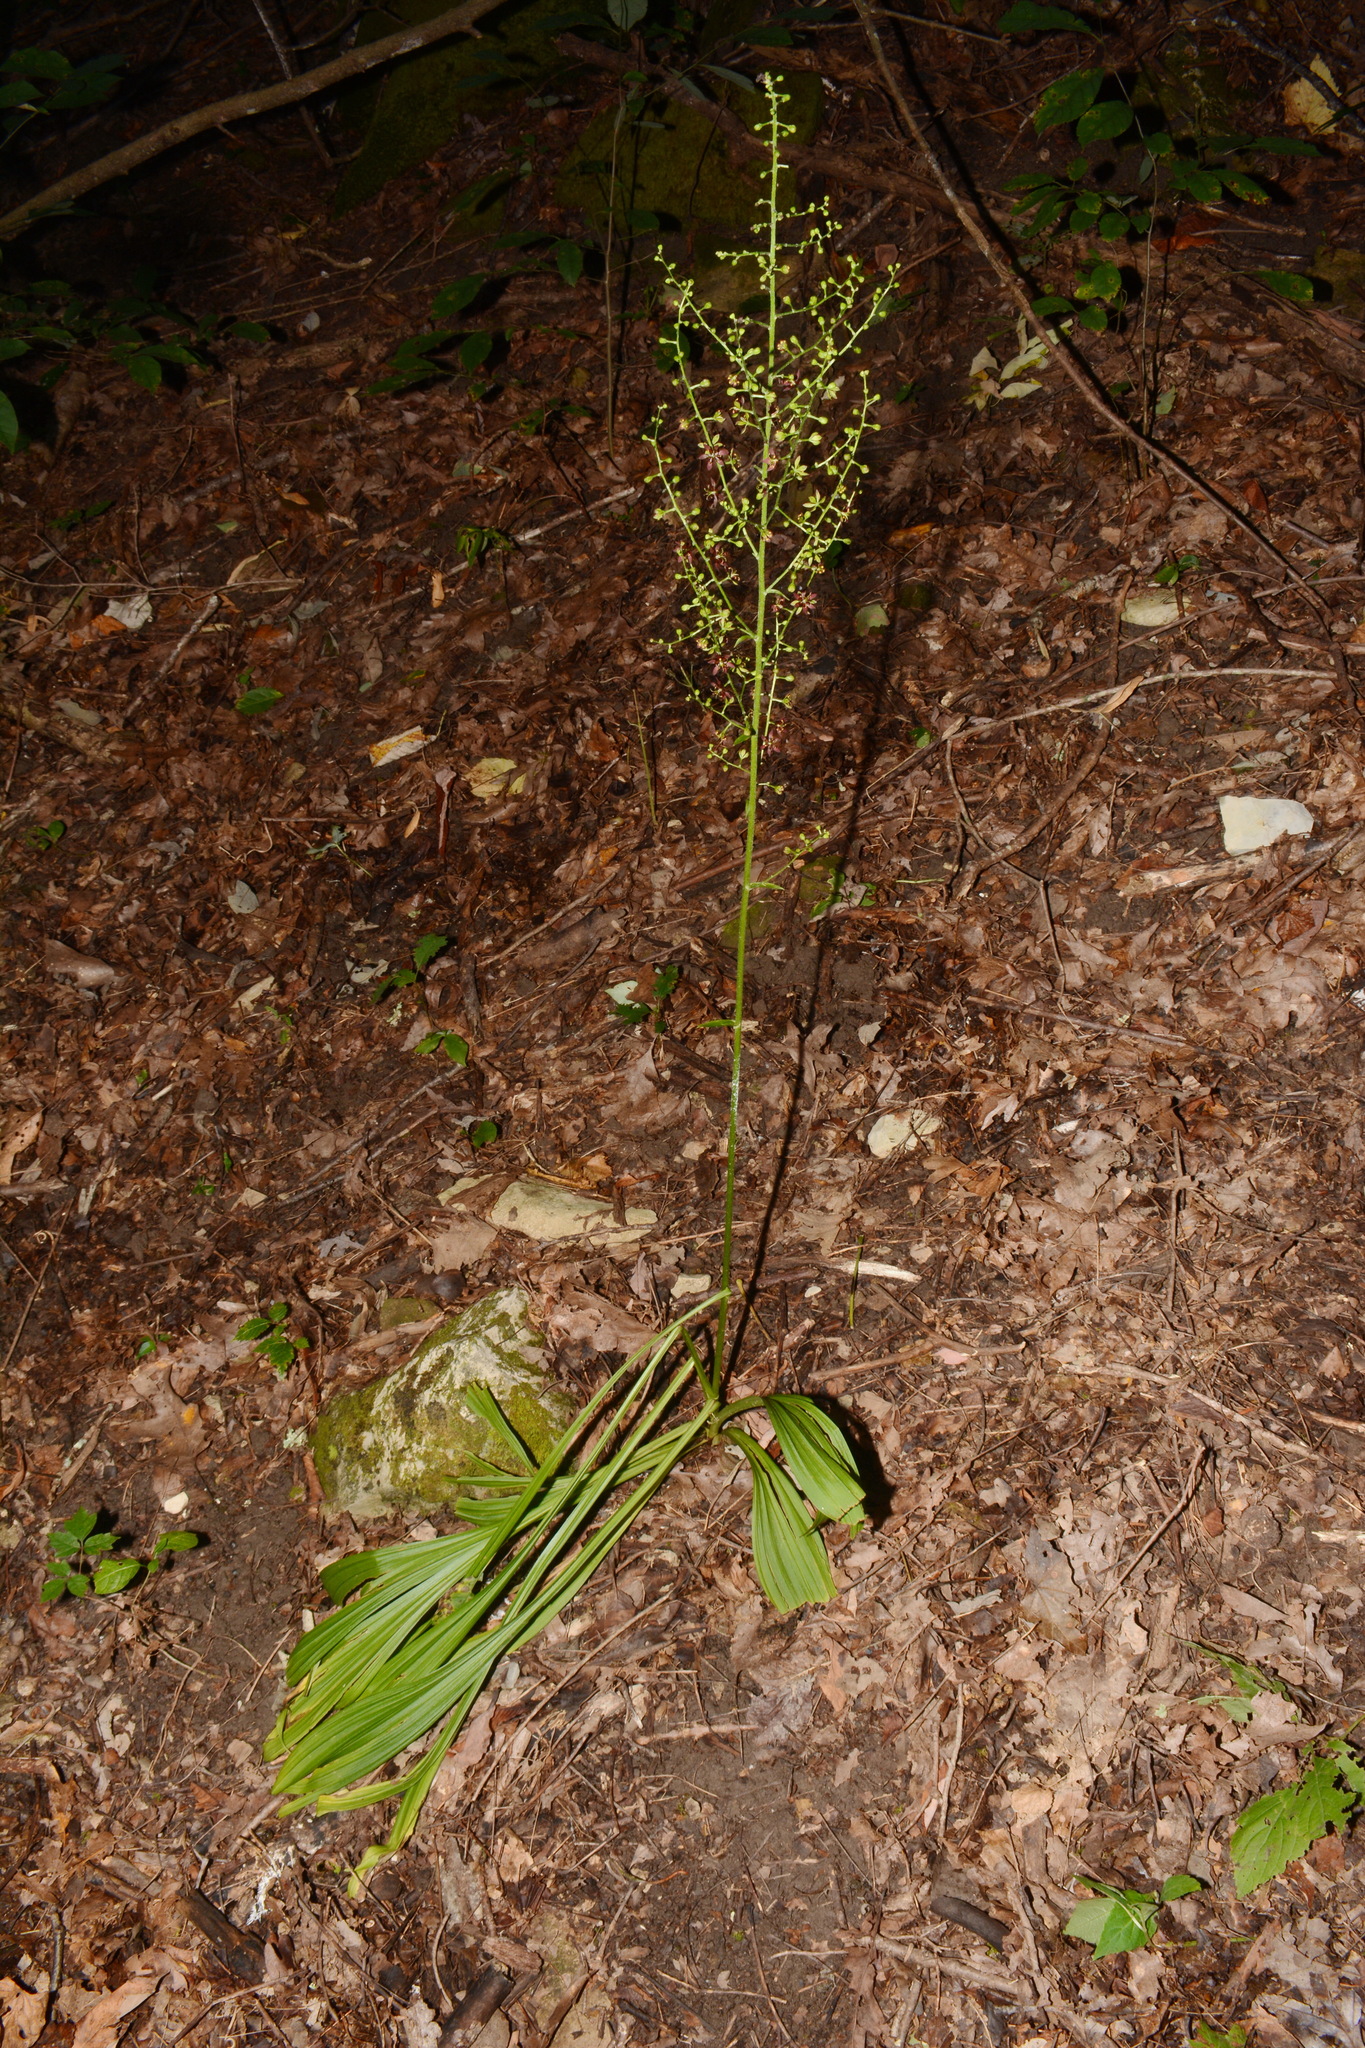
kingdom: Plantae
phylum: Tracheophyta
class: Liliopsida
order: Liliales
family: Melanthiaceae
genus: Veratrum
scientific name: Veratrum woodii
